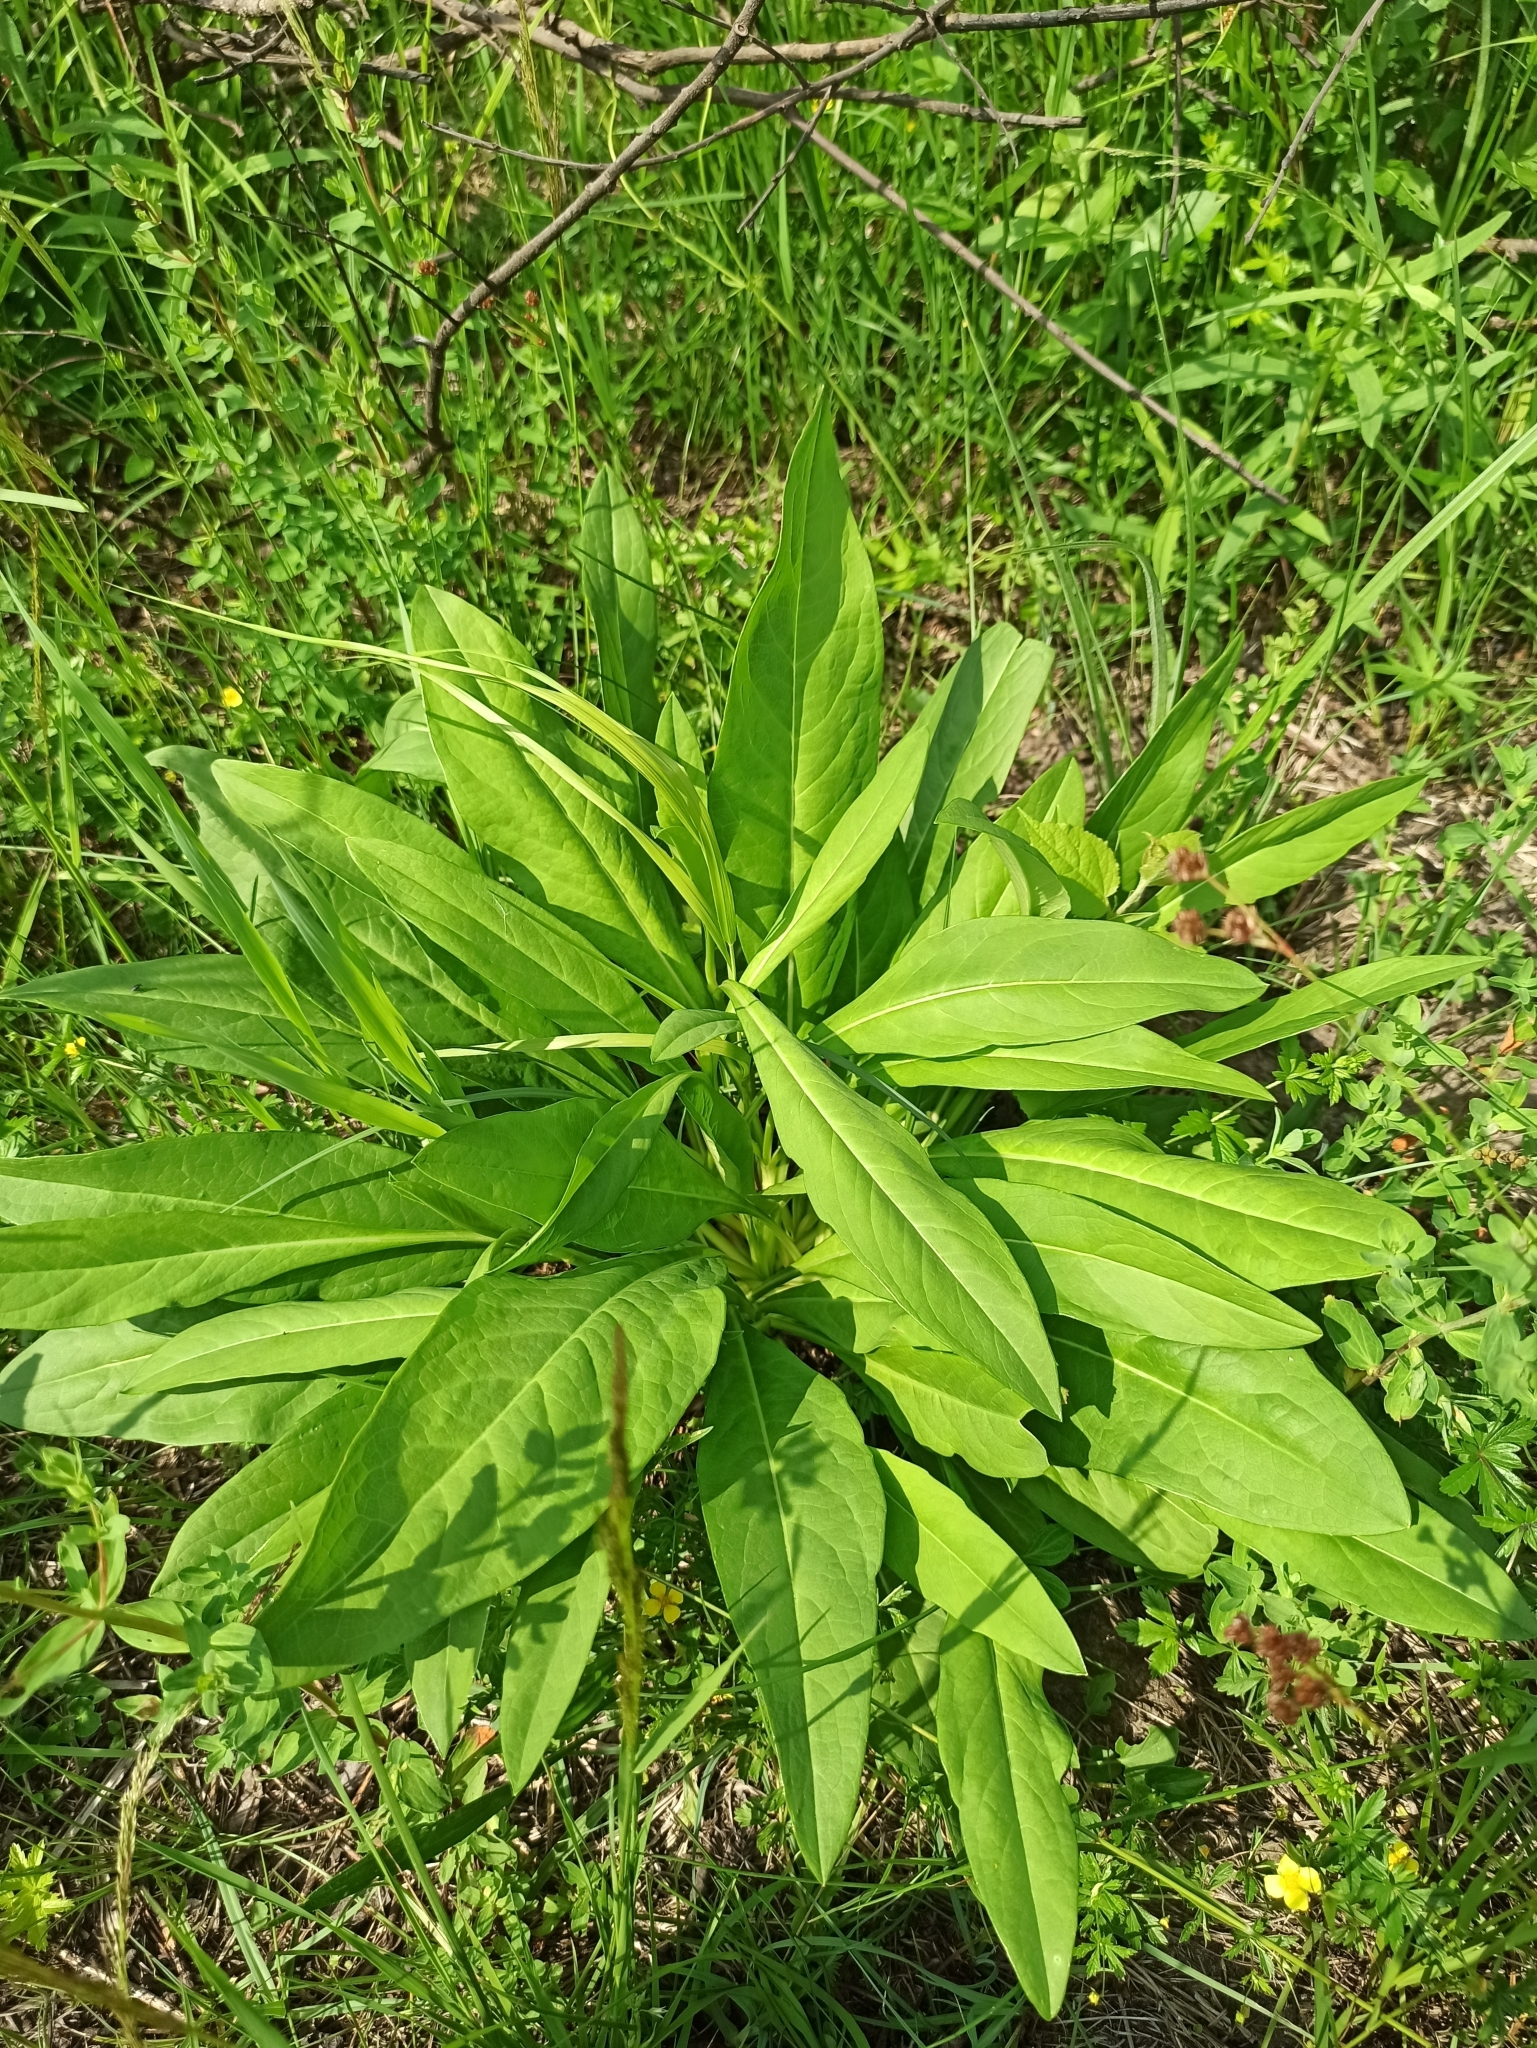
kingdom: Plantae
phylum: Tracheophyta
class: Magnoliopsida
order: Dipsacales
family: Caprifoliaceae
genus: Succisa
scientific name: Succisa pratensis
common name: Devil's-bit
